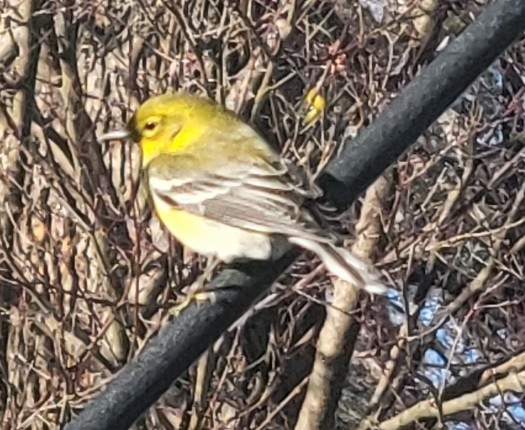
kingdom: Animalia
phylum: Chordata
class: Aves
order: Passeriformes
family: Parulidae
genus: Setophaga
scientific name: Setophaga pinus
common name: Pine warbler
